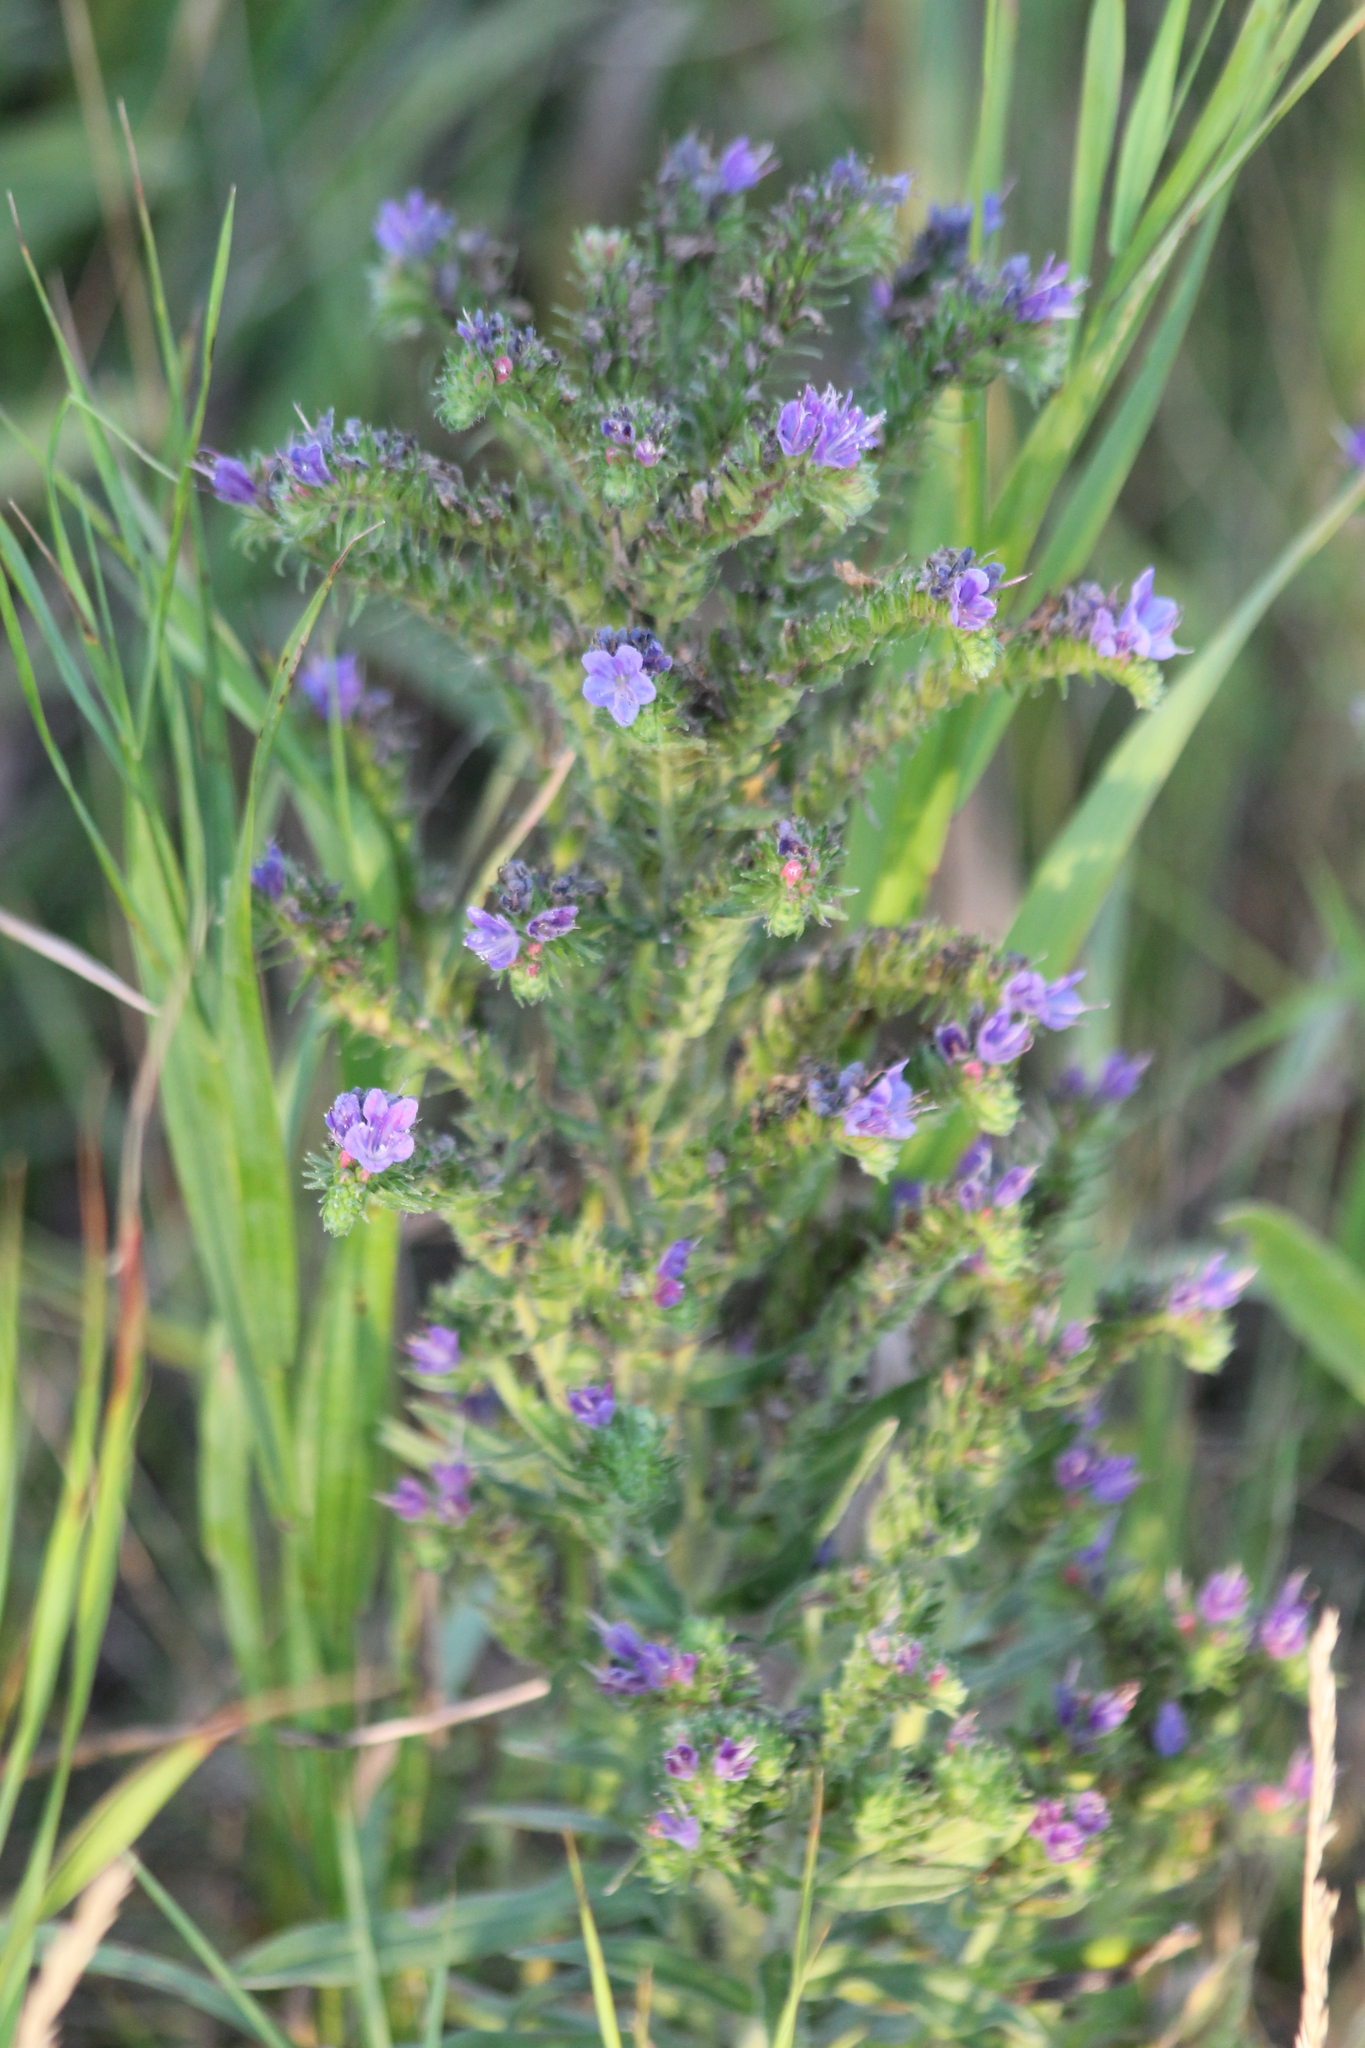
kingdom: Plantae
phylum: Tracheophyta
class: Magnoliopsida
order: Boraginales
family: Boraginaceae
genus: Echium
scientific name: Echium vulgare
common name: Common viper's bugloss
